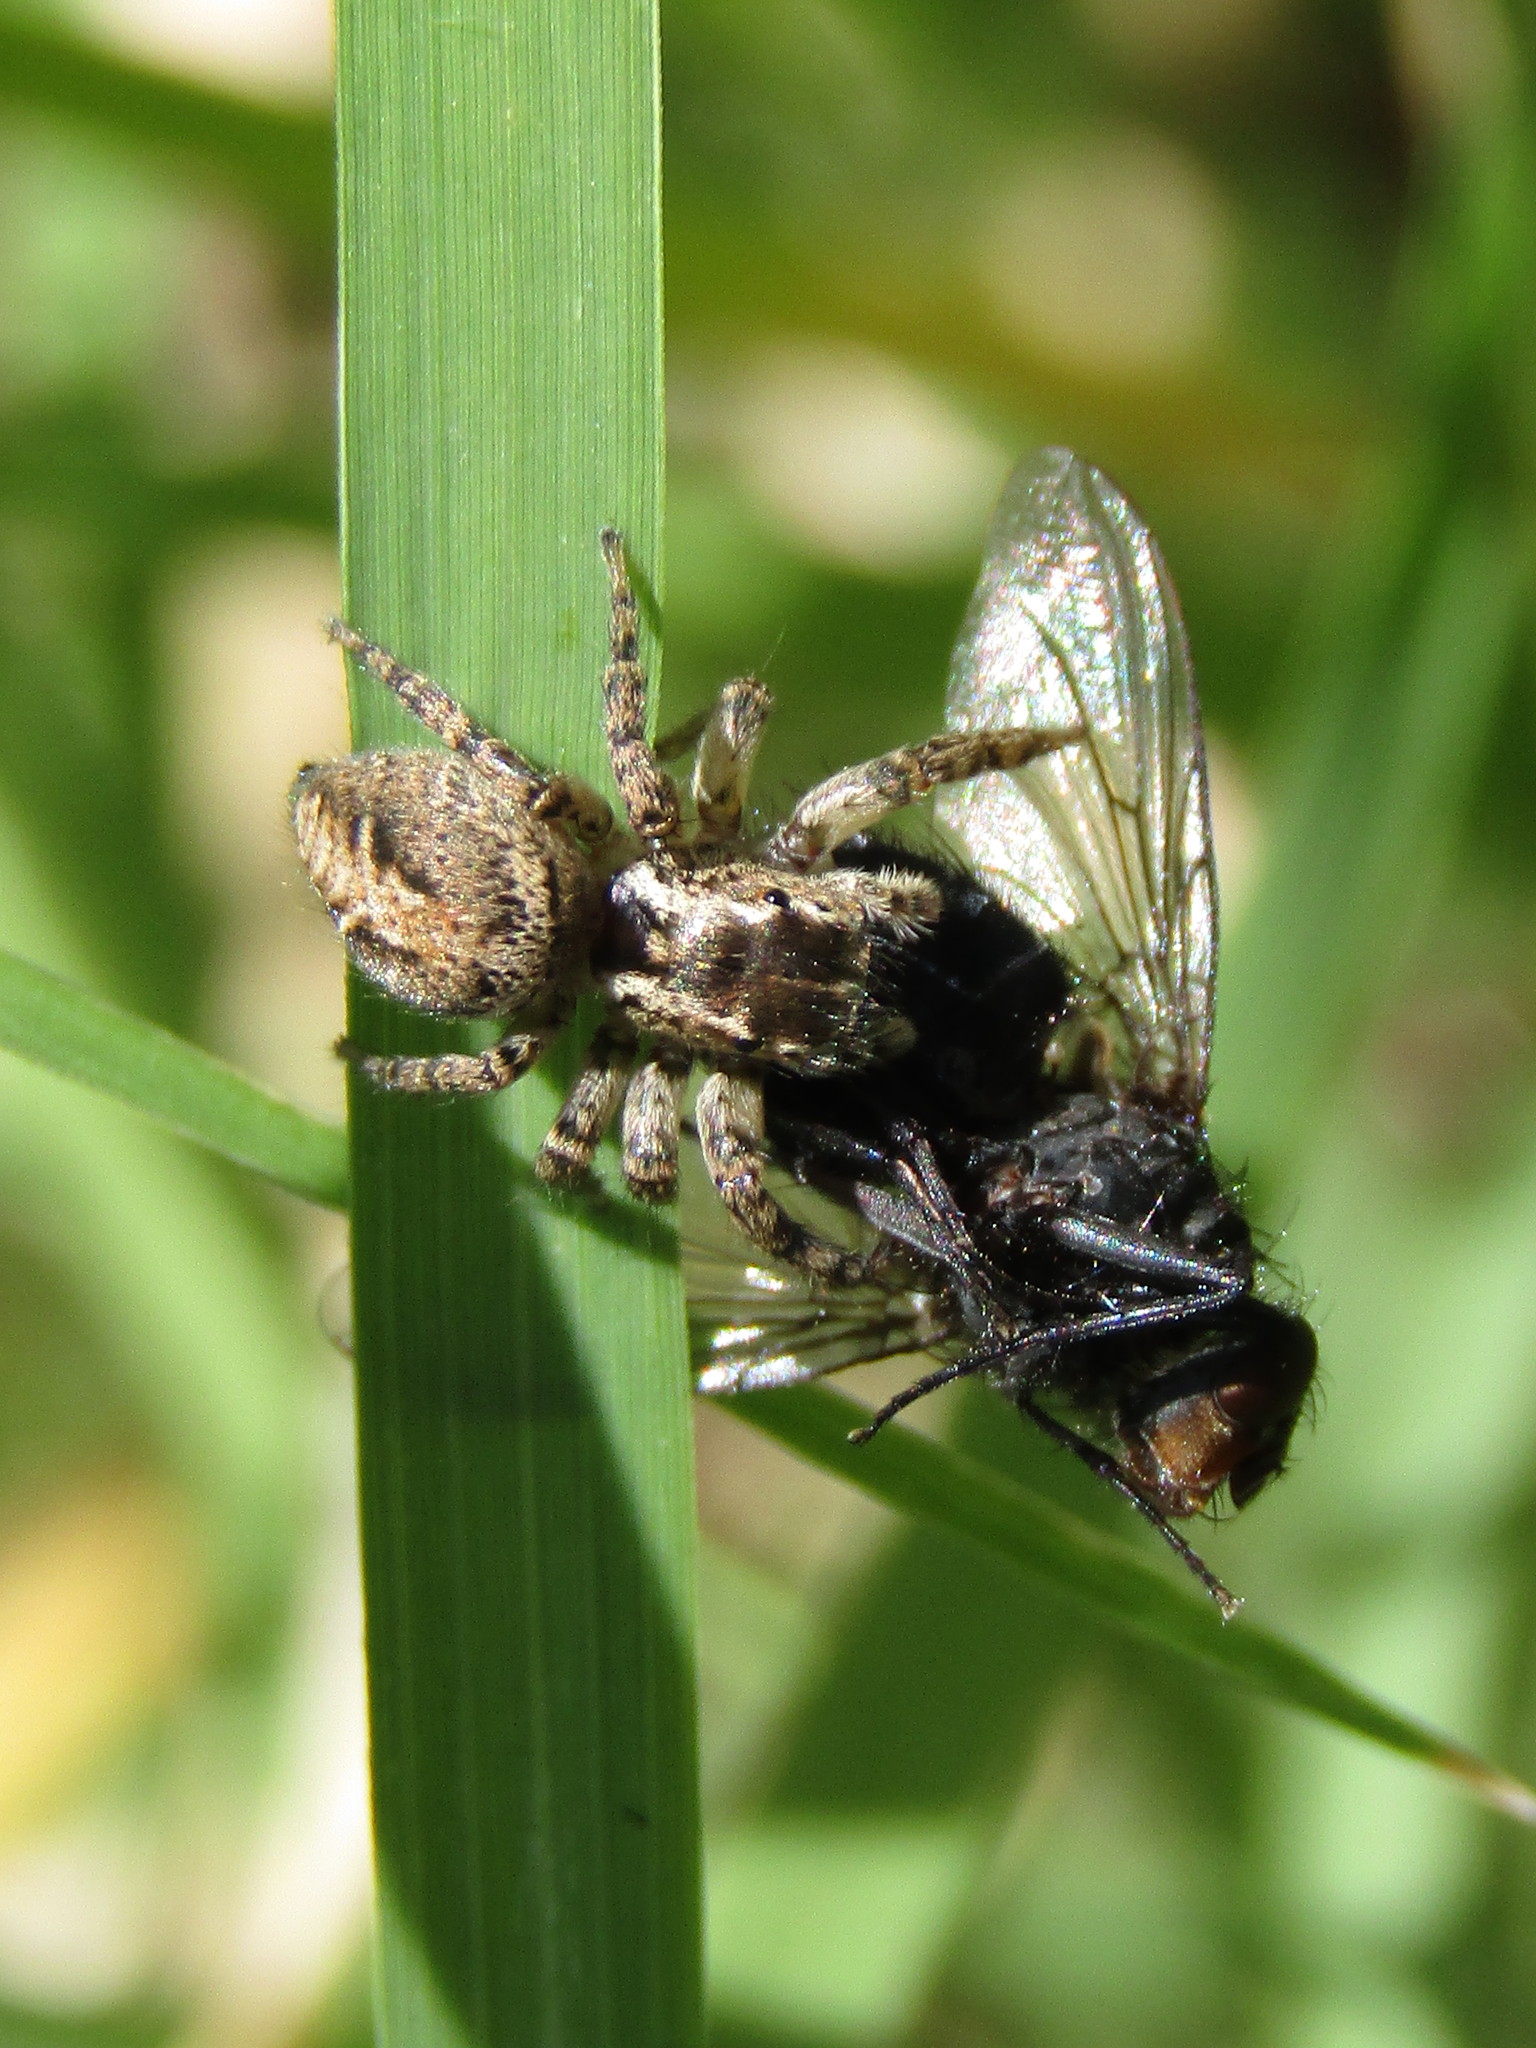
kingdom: Animalia
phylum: Arthropoda
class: Arachnida
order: Araneae
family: Salticidae
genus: Aphirape
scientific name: Aphirape
